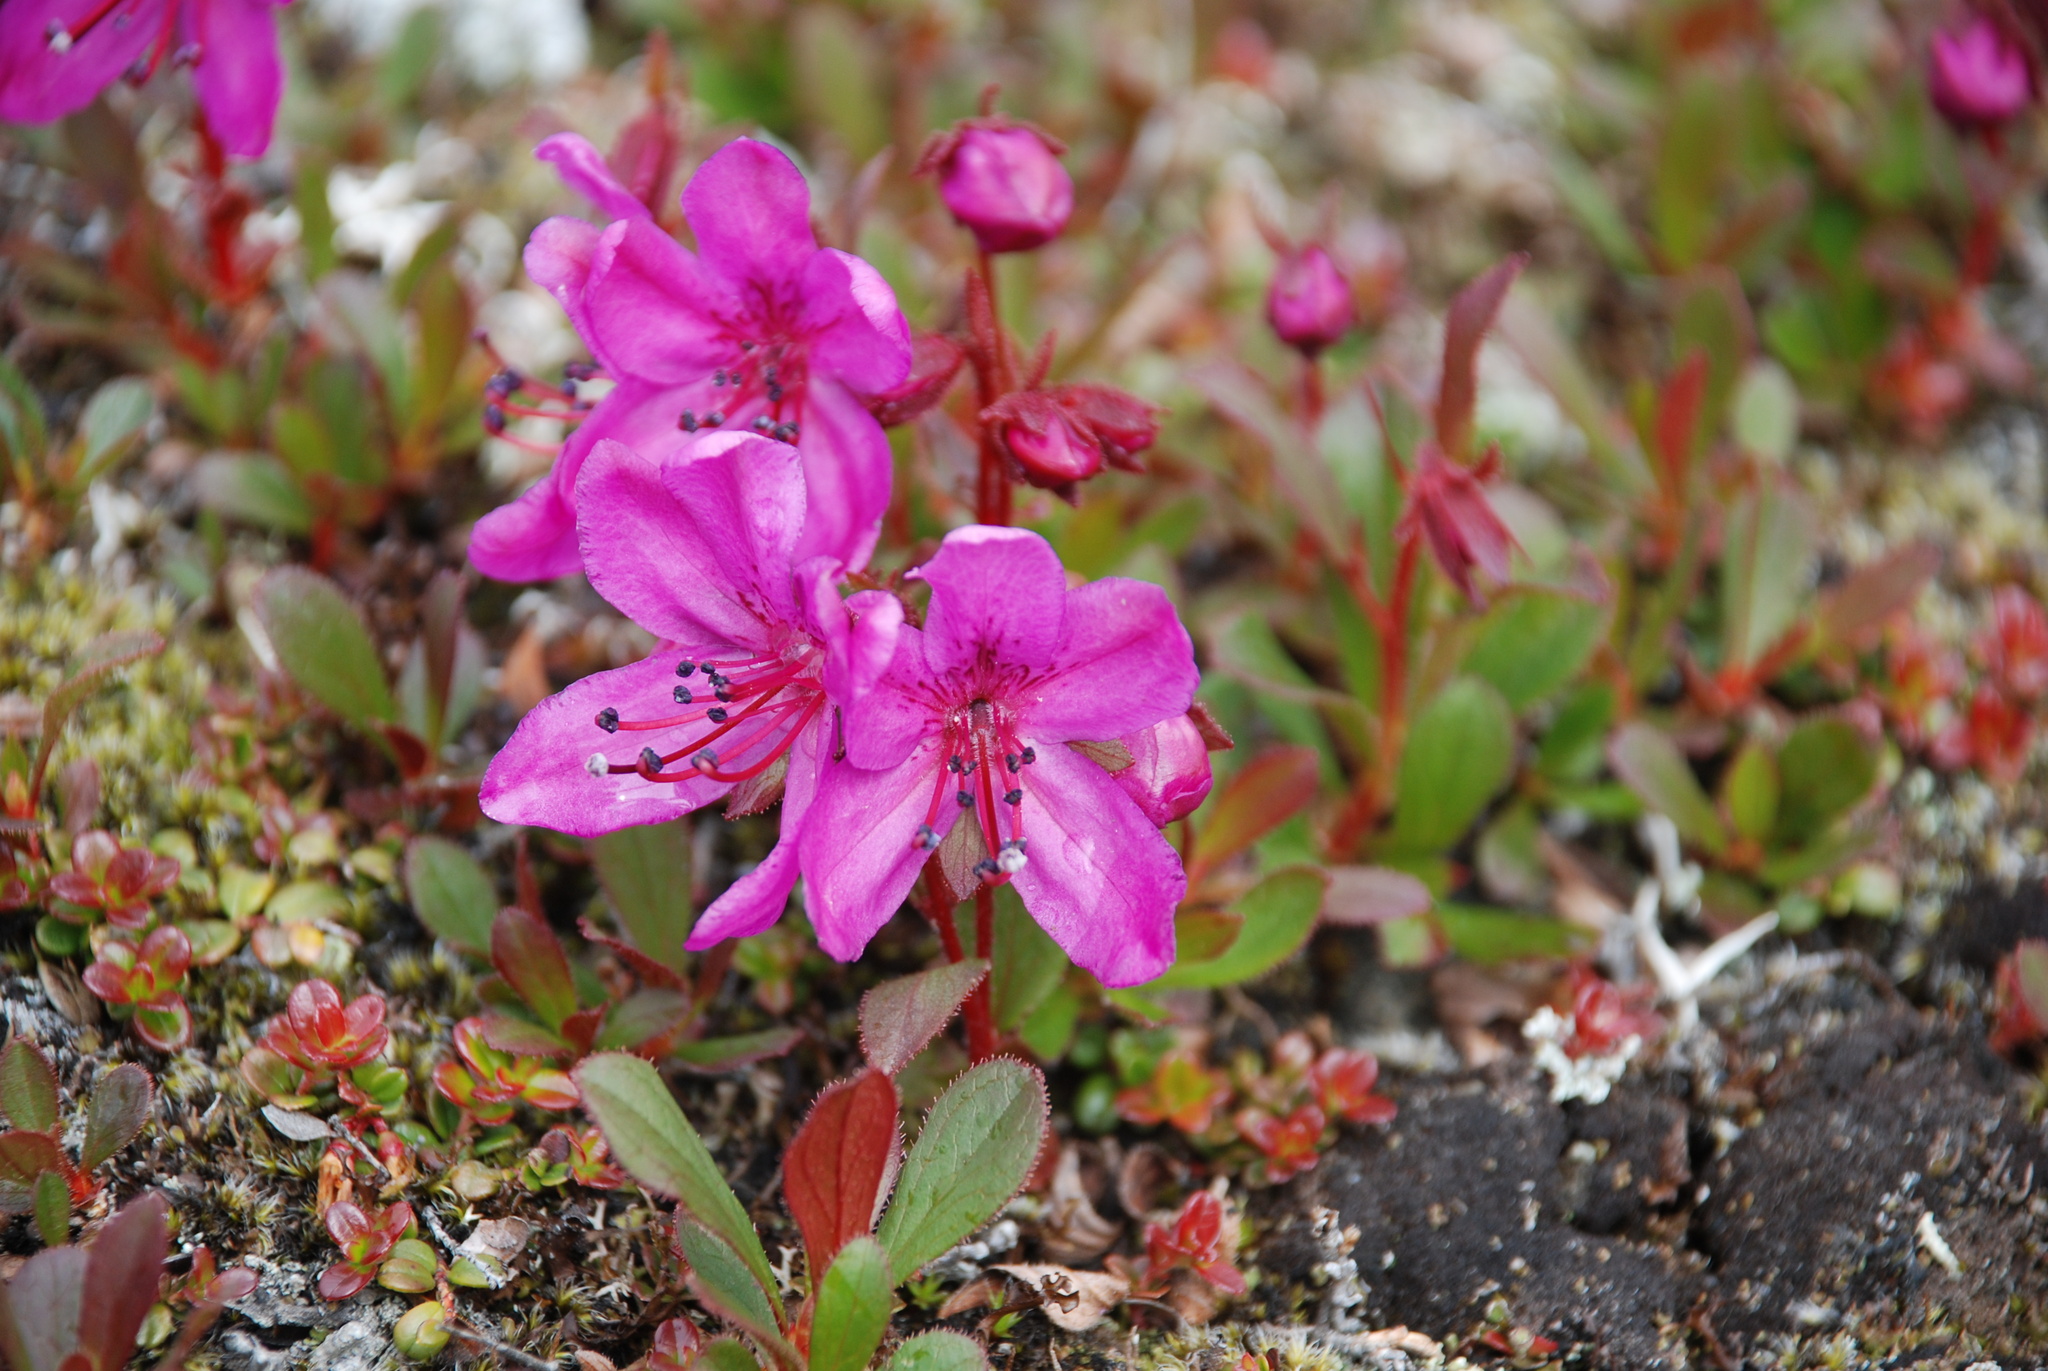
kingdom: Plantae
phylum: Tracheophyta
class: Magnoliopsida
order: Ericales
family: Ericaceae
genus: Rhododendron
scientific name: Rhododendron camtschaticum
